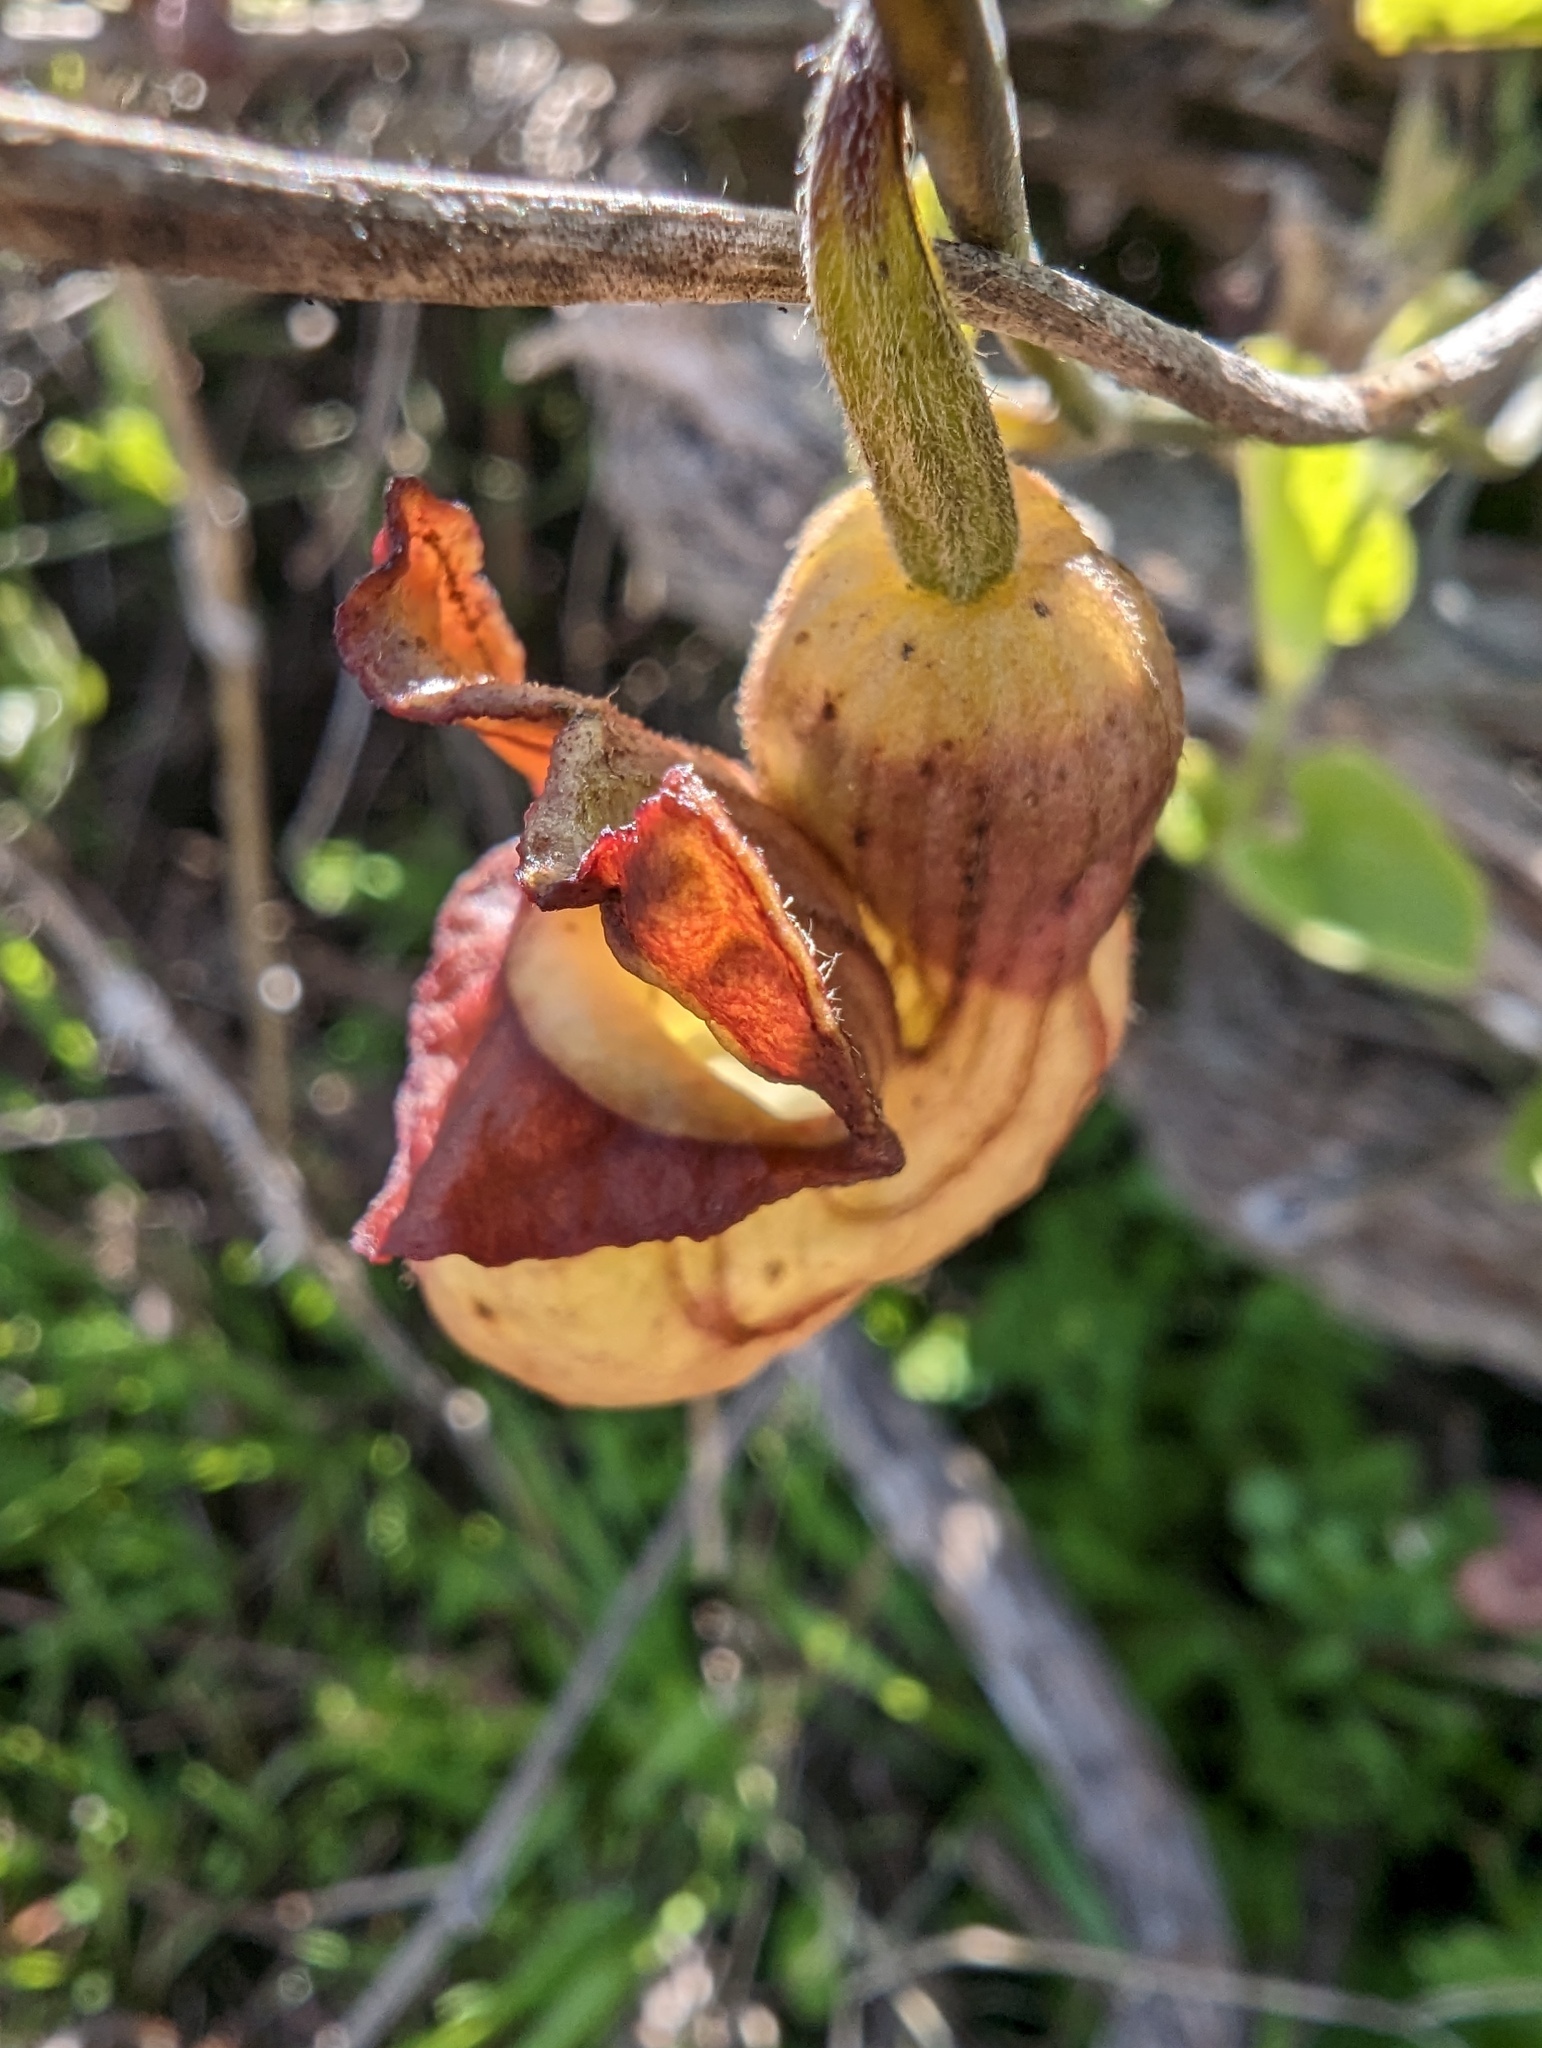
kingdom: Plantae
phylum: Tracheophyta
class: Magnoliopsida
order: Piperales
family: Aristolochiaceae
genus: Isotrema
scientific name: Isotrema californicum
